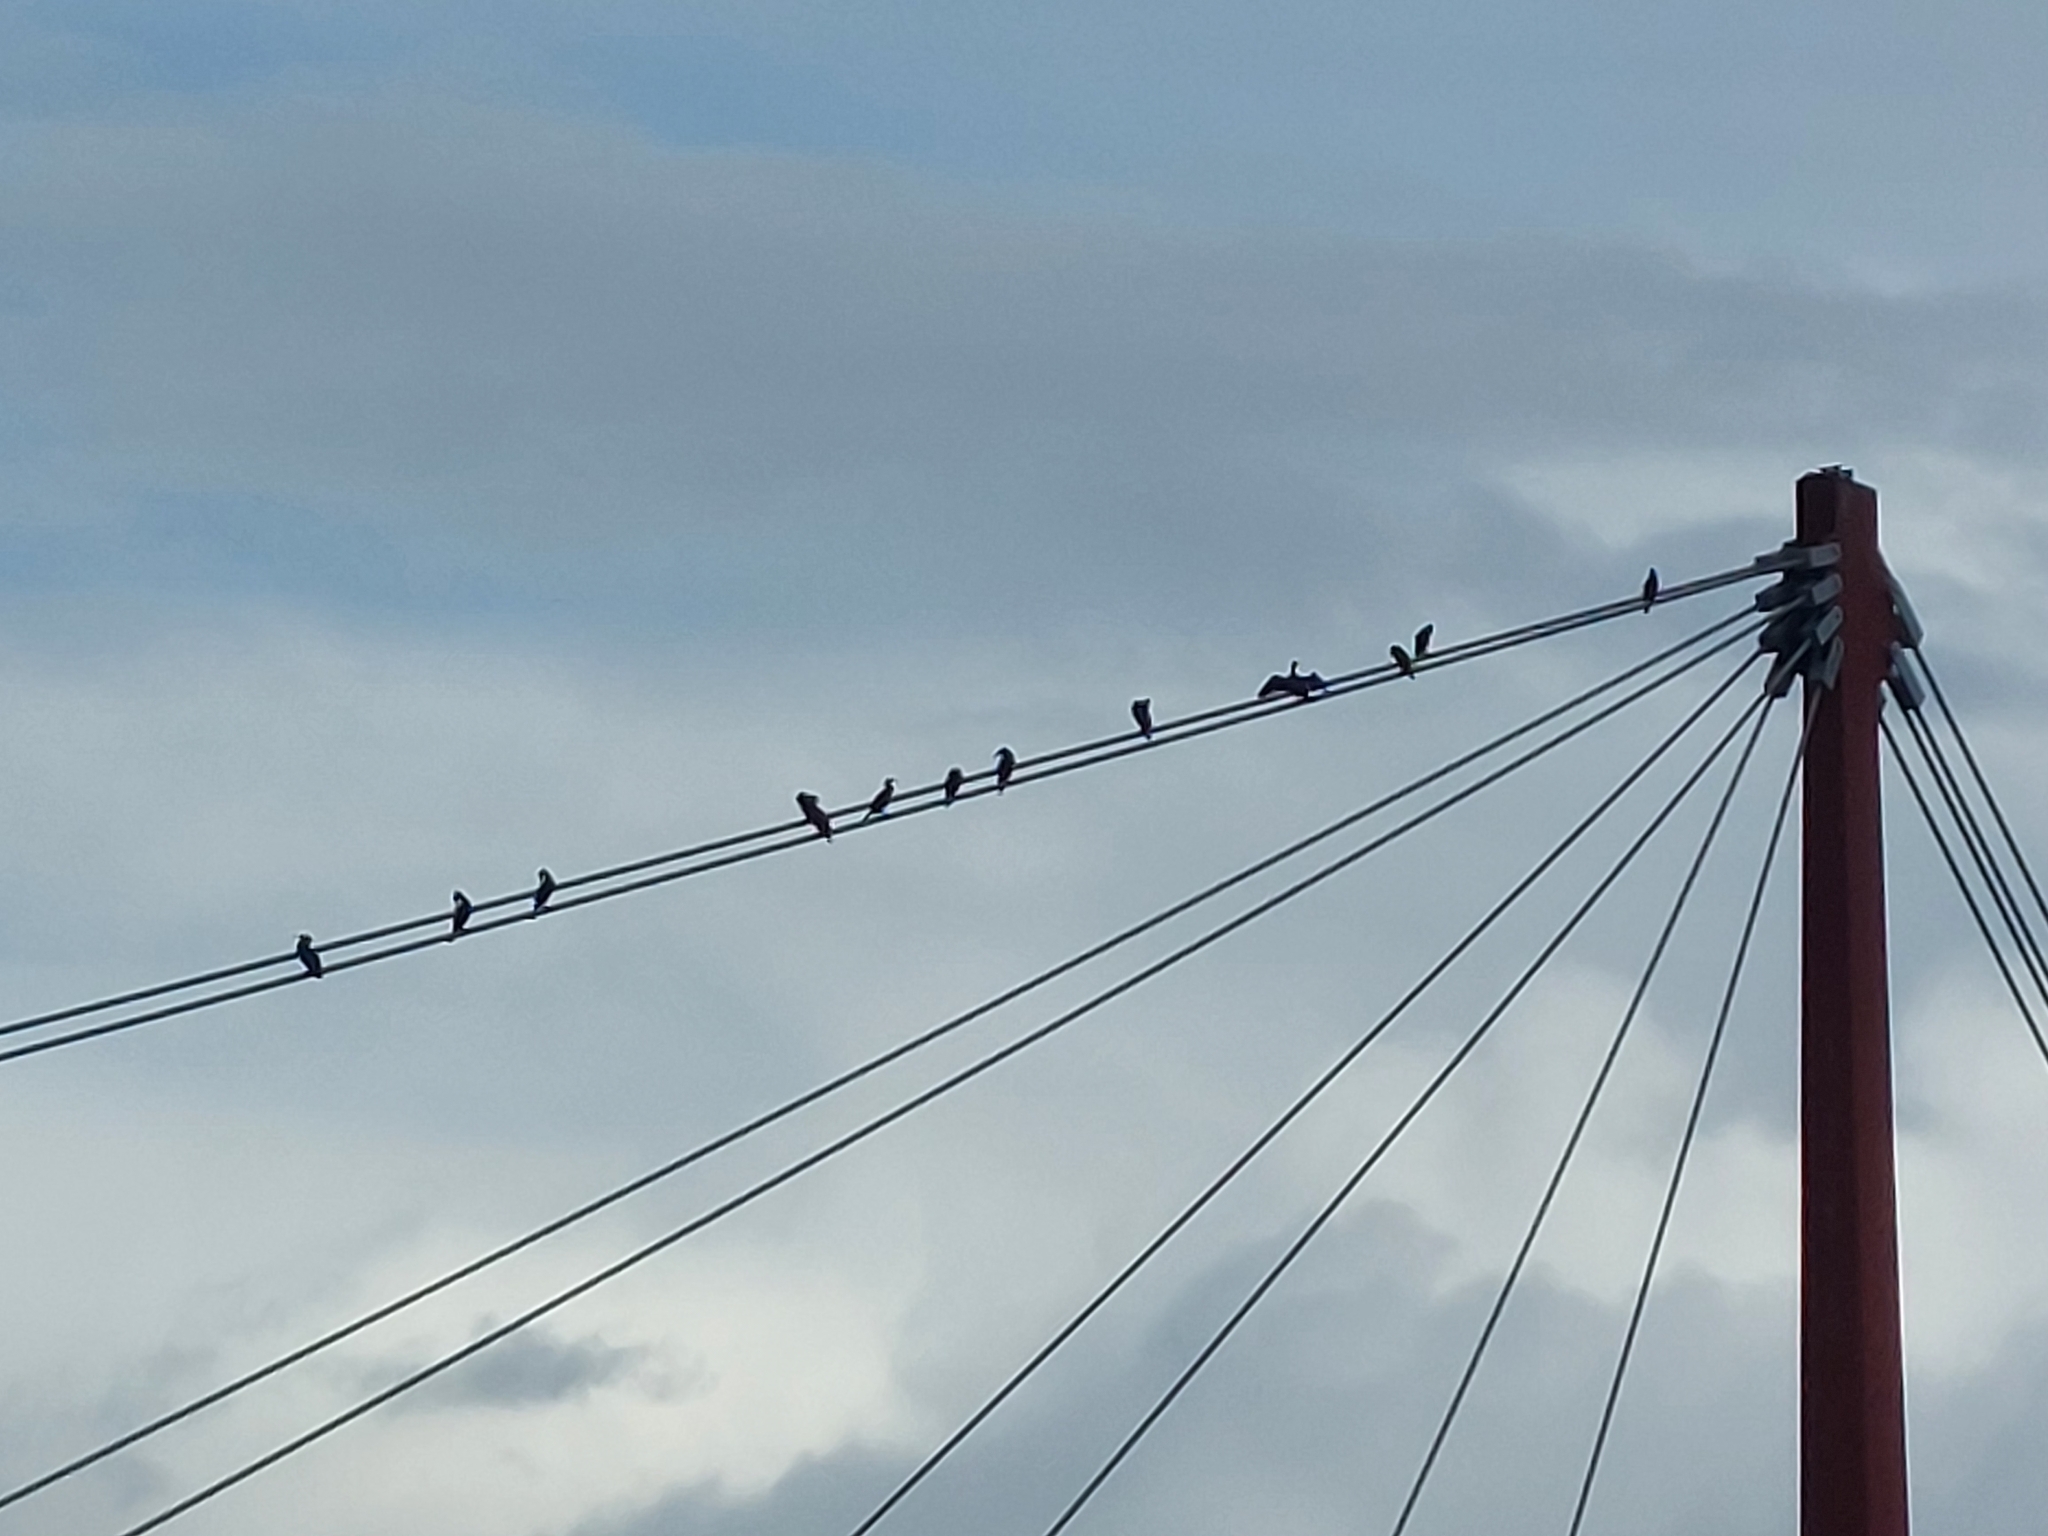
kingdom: Animalia
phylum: Chordata
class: Aves
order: Suliformes
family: Phalacrocoracidae
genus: Phalacrocorax
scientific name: Phalacrocorax carbo
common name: Great cormorant
